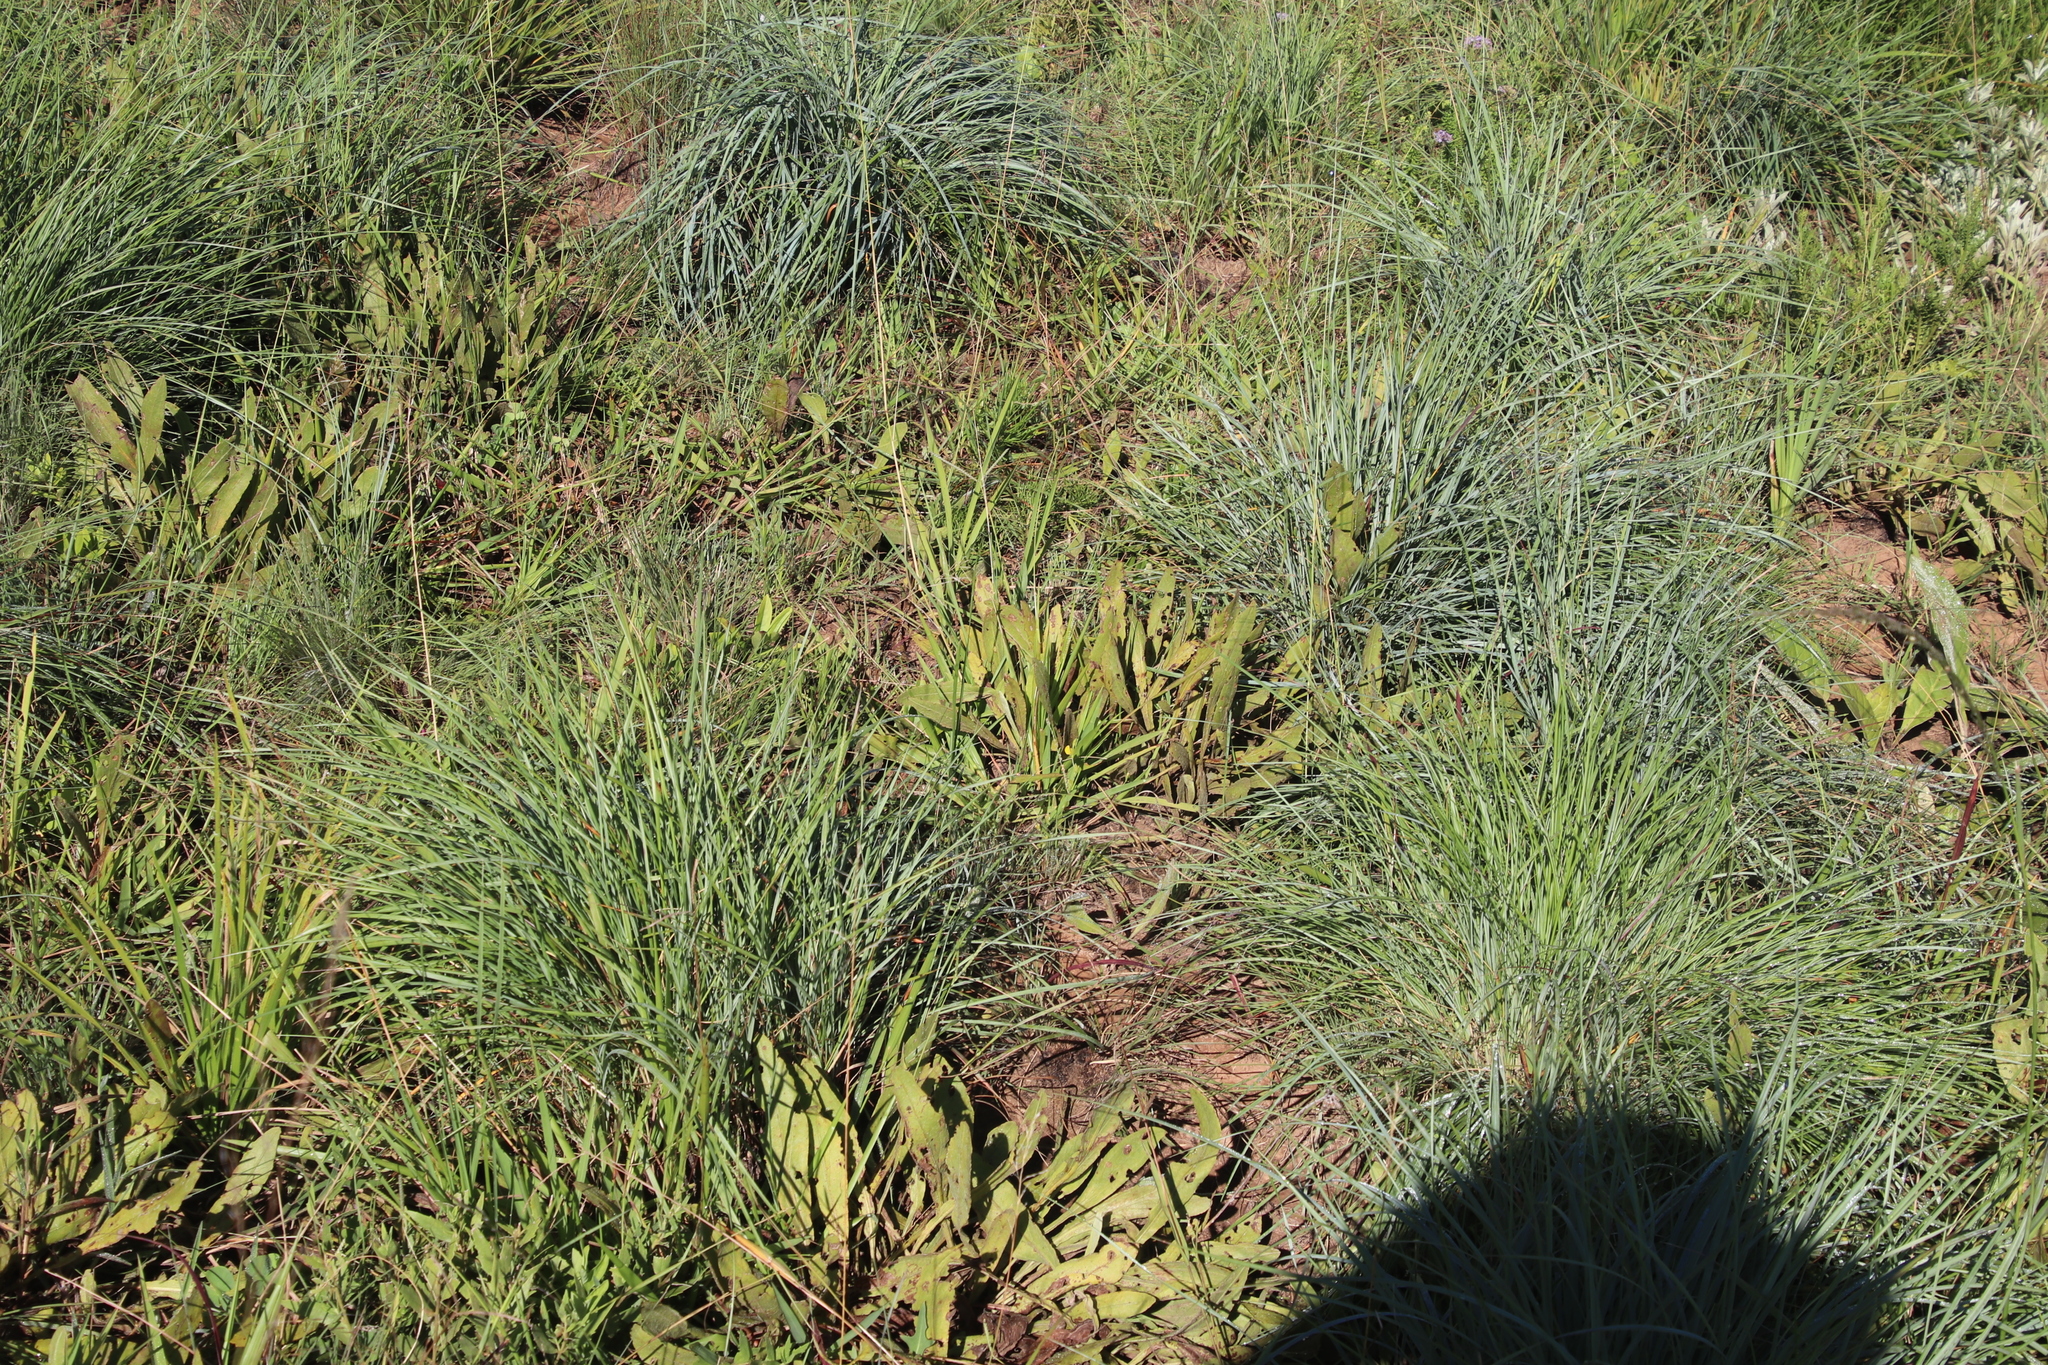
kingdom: Plantae
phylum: Tracheophyta
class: Magnoliopsida
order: Proteales
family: Proteaceae
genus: Protea
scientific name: Protea simplex
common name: Dwarf grassveld sugarbush
